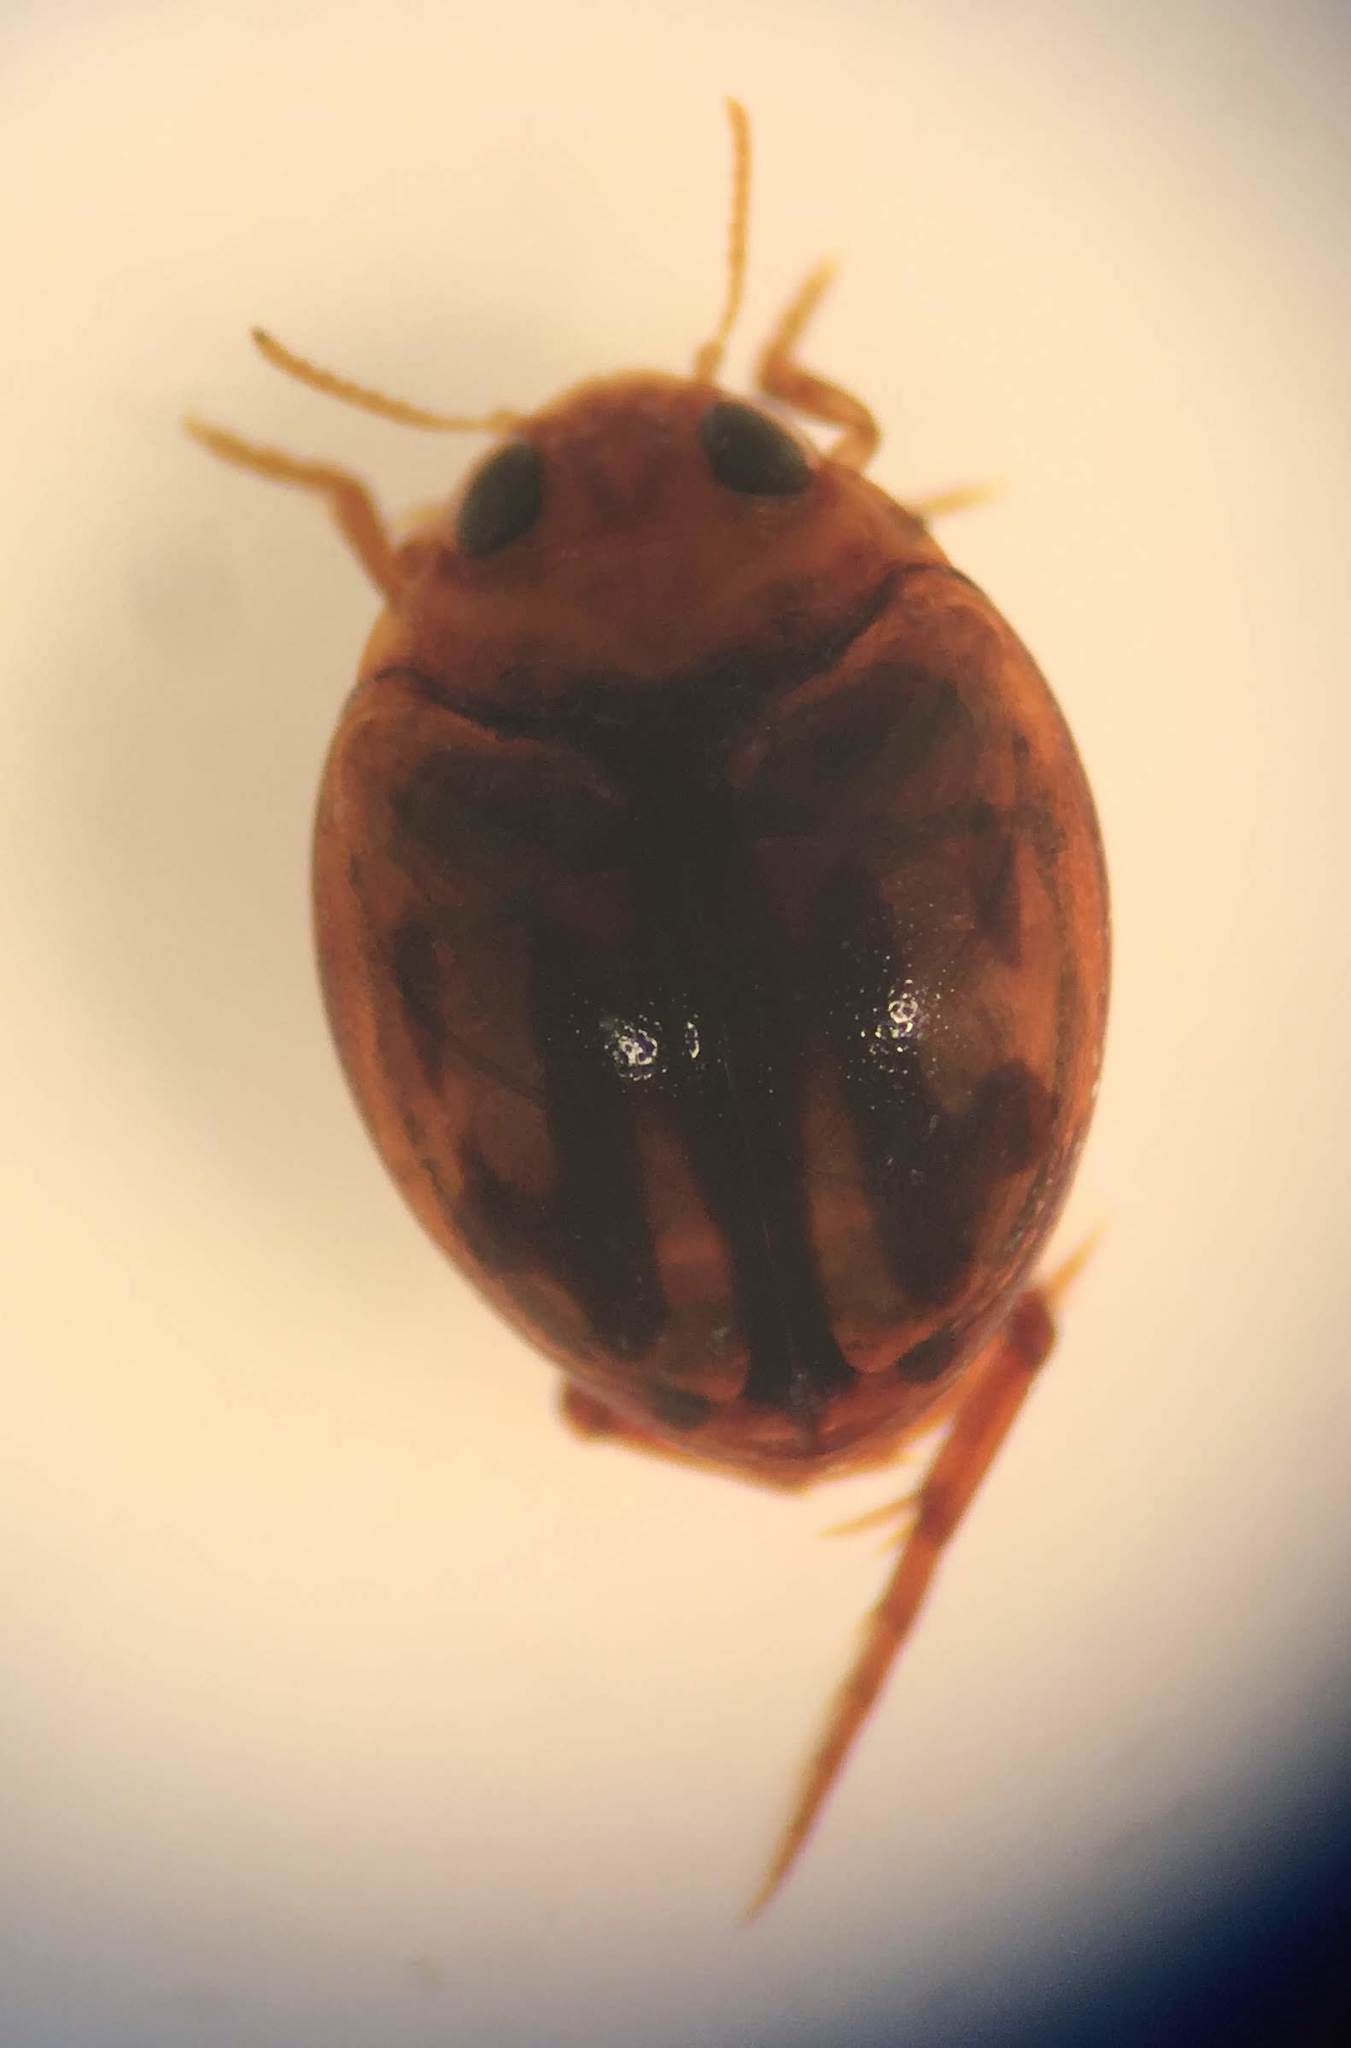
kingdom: Animalia
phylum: Arthropoda
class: Insecta
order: Coleoptera
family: Dytiscidae
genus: Desmopachria
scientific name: Desmopachria seminola
